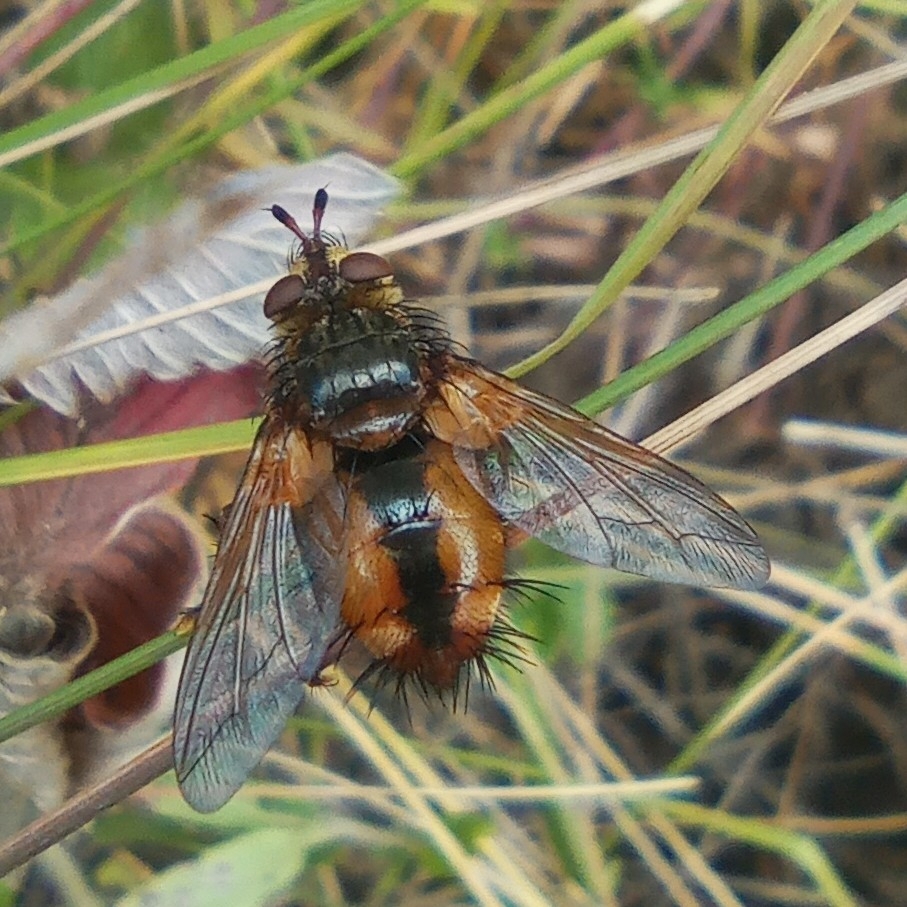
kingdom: Animalia
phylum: Arthropoda
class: Insecta
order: Diptera
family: Tachinidae
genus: Tachina
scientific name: Tachina fera
